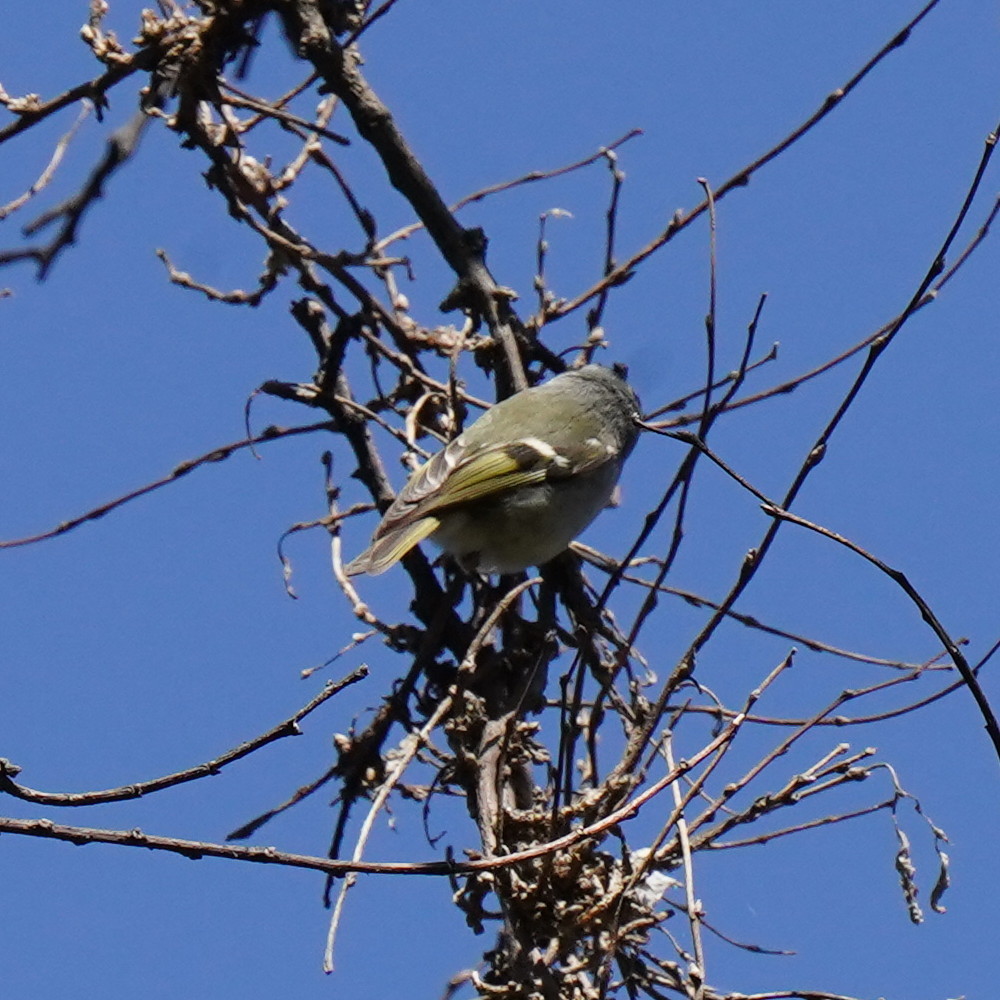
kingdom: Animalia
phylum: Chordata
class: Aves
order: Passeriformes
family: Regulidae
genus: Regulus
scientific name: Regulus satrapa
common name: Golden-crowned kinglet
